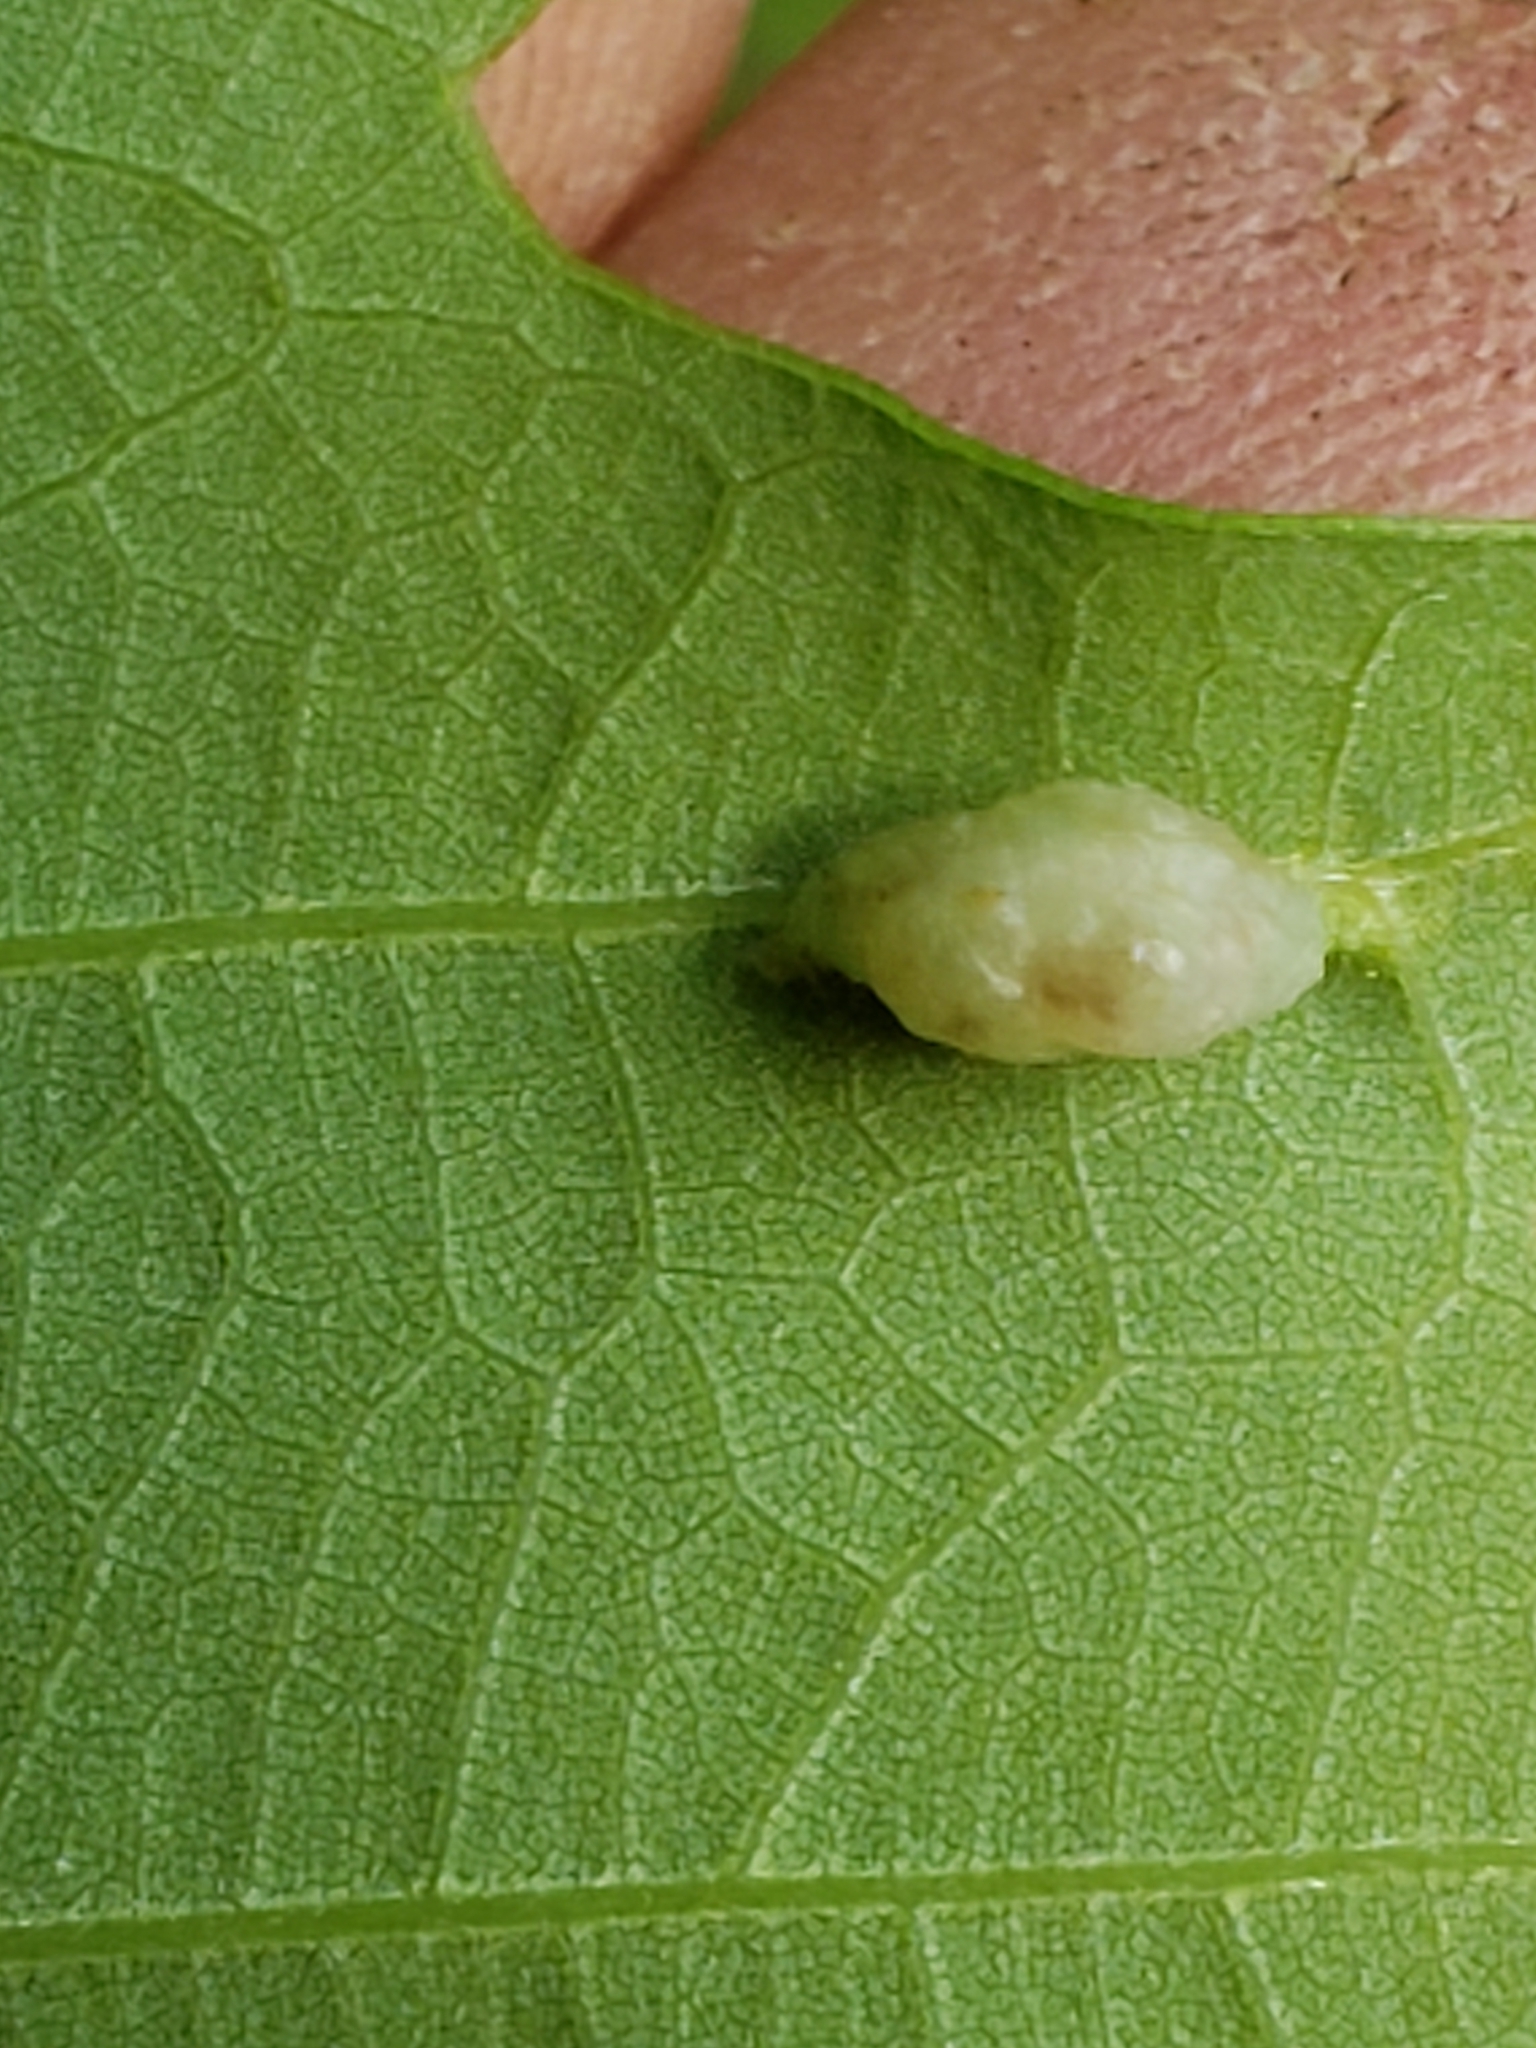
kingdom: Animalia
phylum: Arthropoda
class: Insecta
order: Diptera
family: Cecidomyiidae
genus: Macrodiplosis
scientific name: Macrodiplosis majalis
